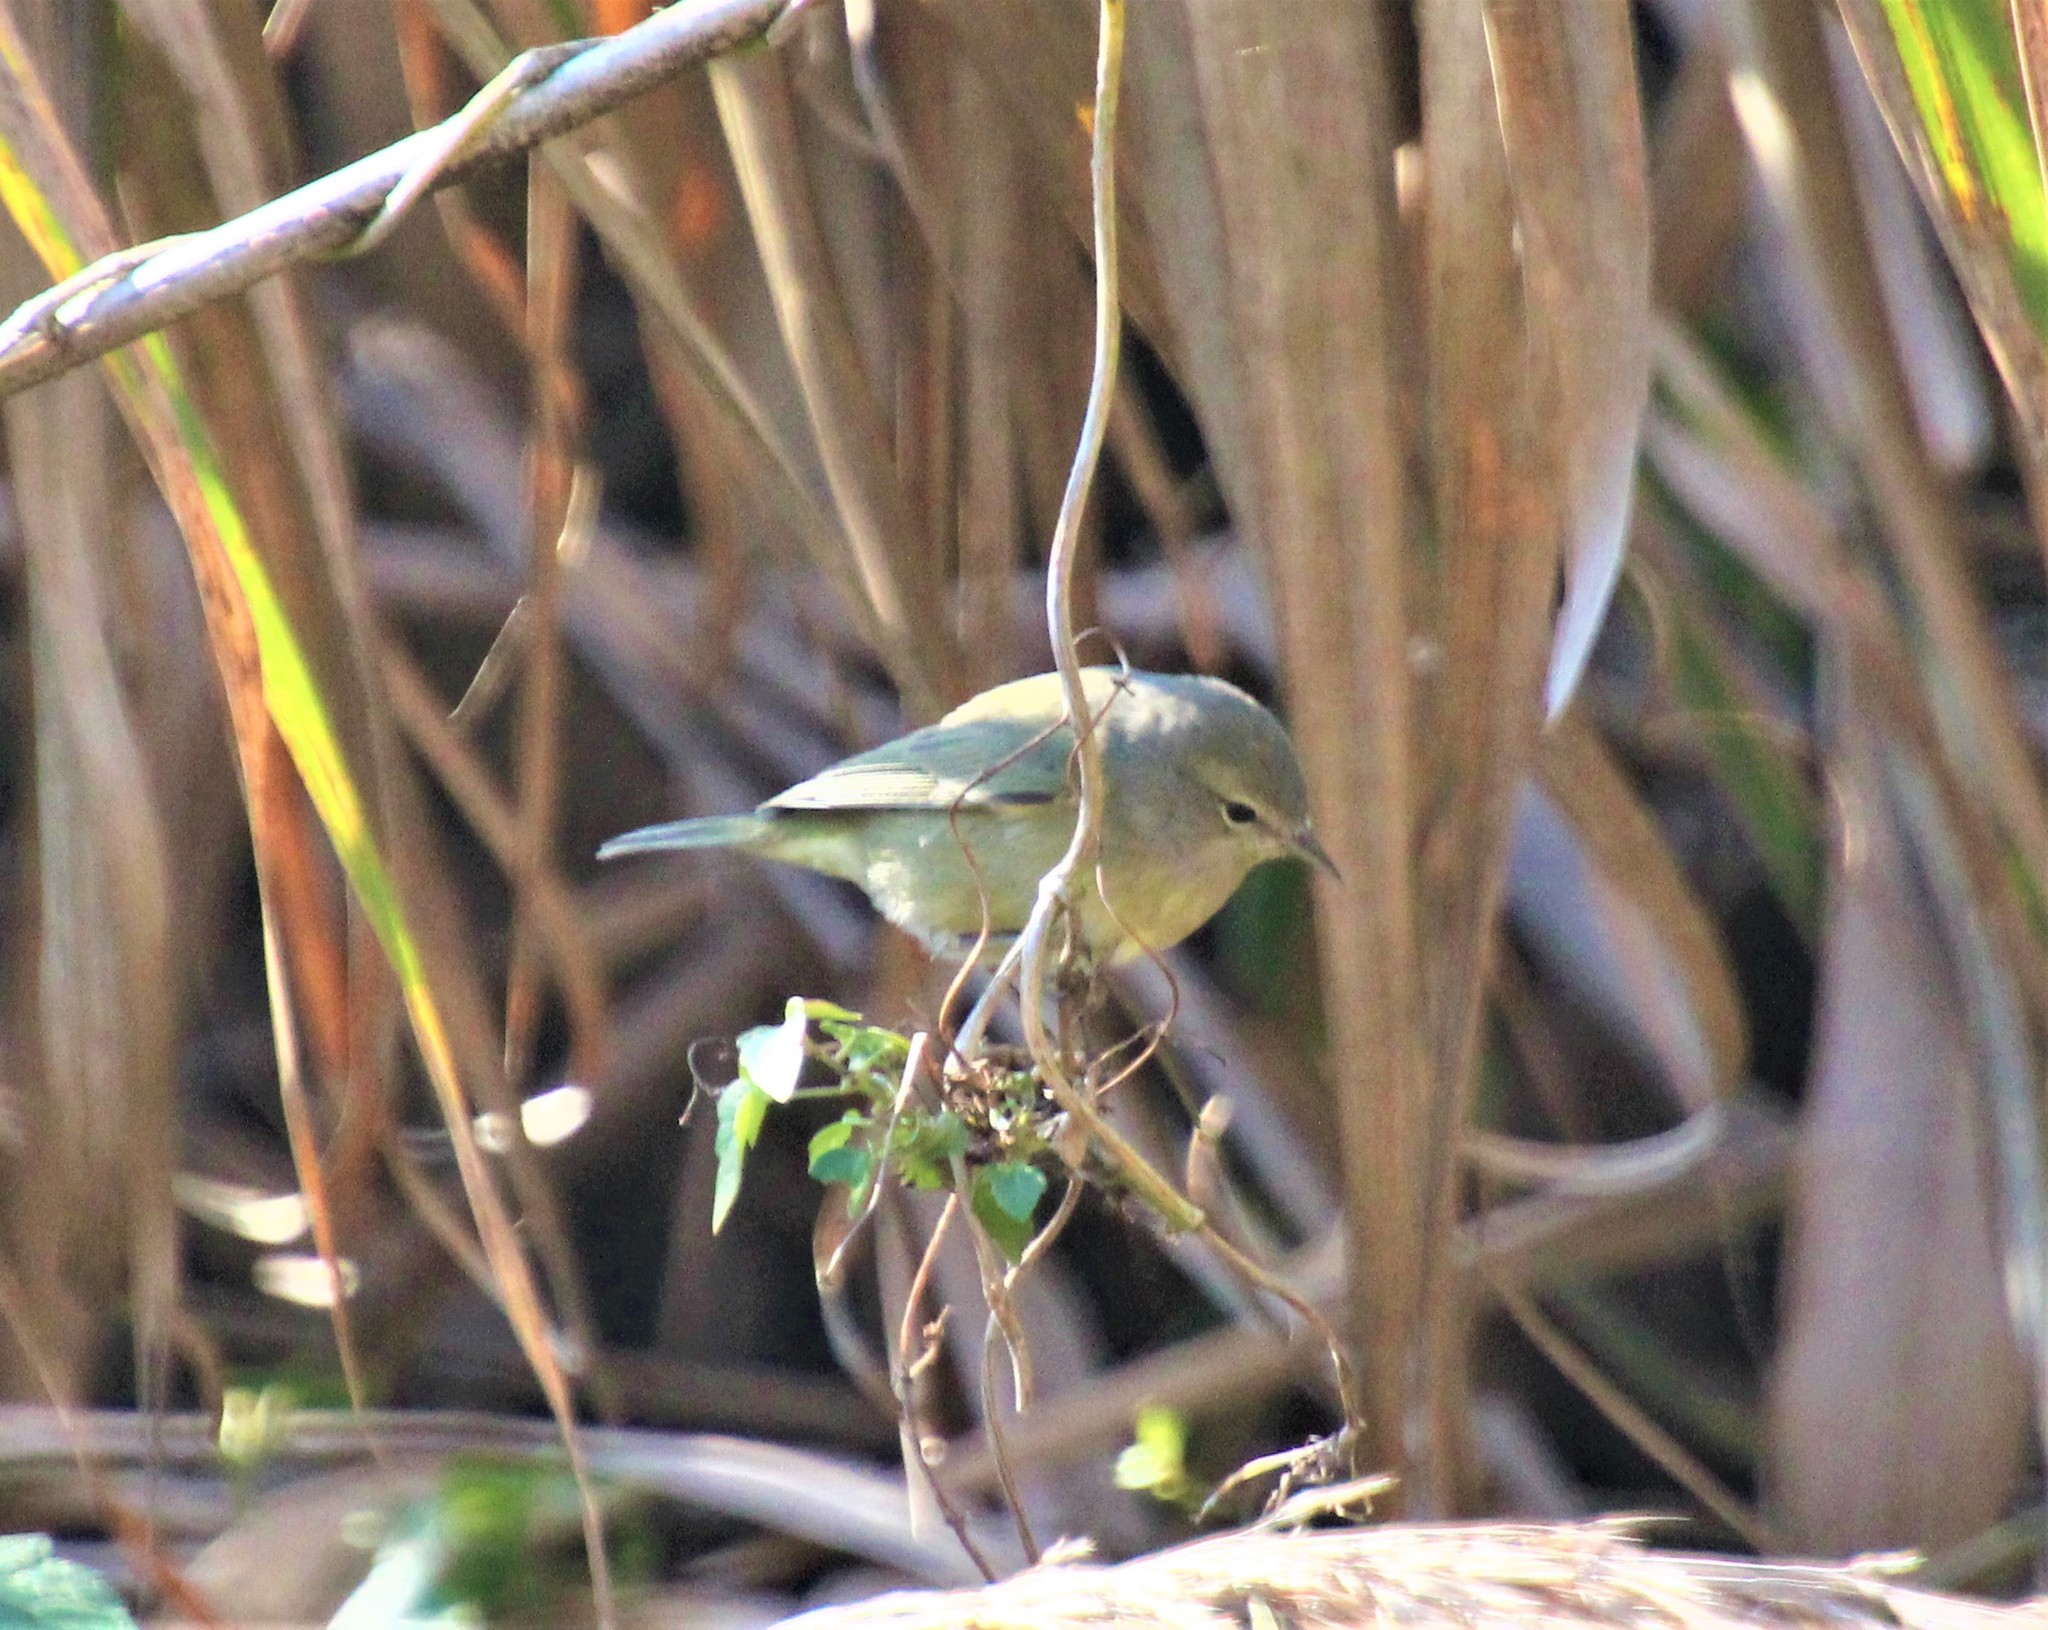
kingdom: Animalia
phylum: Chordata
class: Aves
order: Passeriformes
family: Parulidae
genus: Leiothlypis
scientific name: Leiothlypis celata
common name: Orange-crowned warbler
